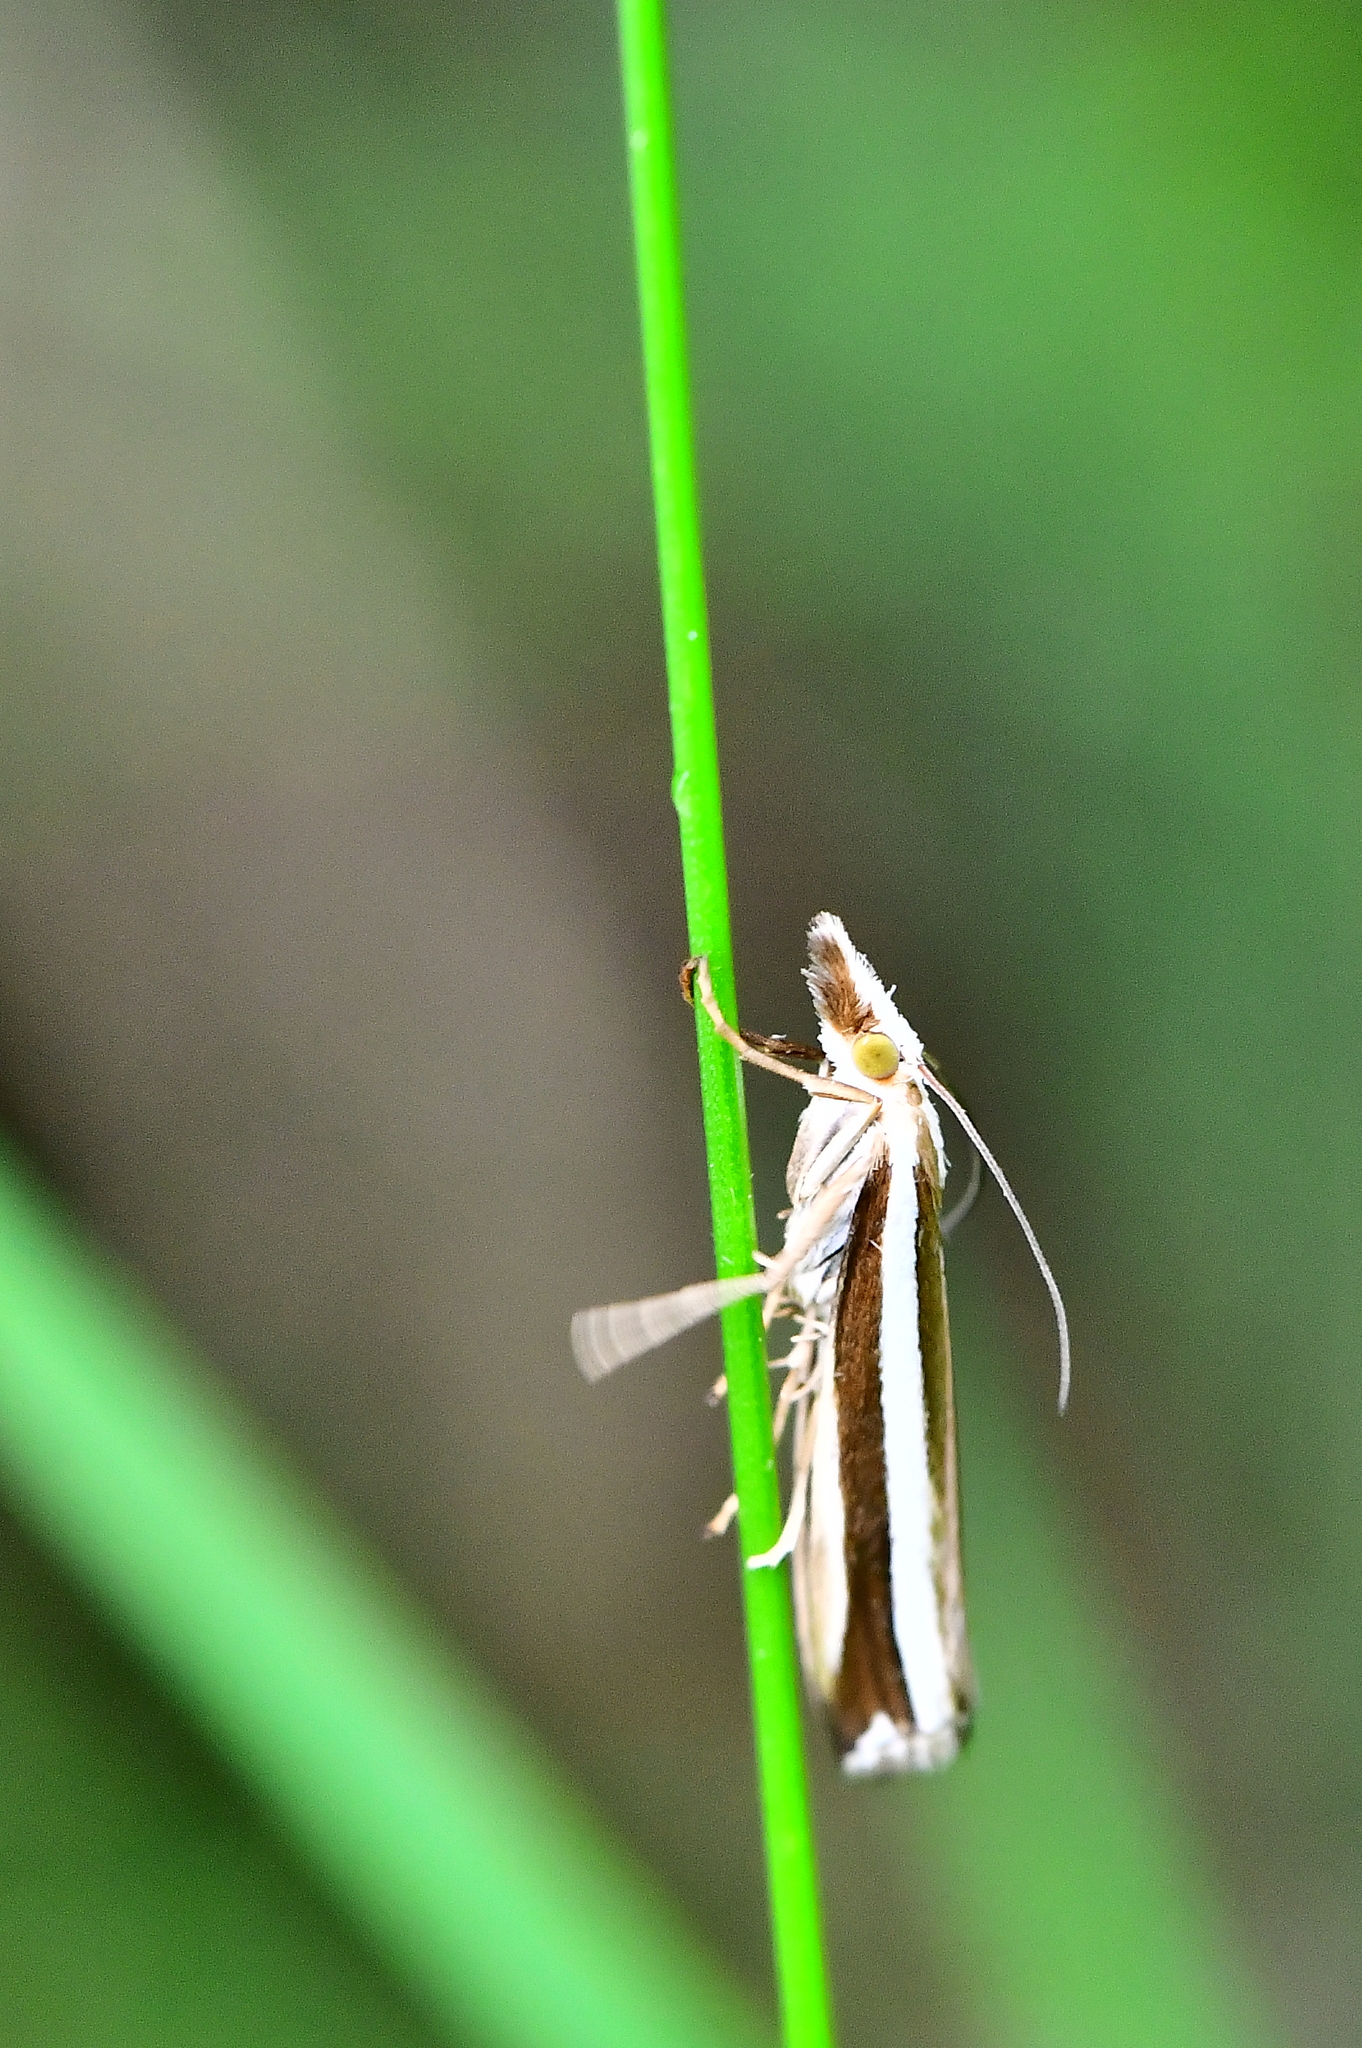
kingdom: Animalia
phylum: Arthropoda
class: Insecta
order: Lepidoptera
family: Crambidae
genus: Orocrambus
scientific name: Orocrambus apicellus
